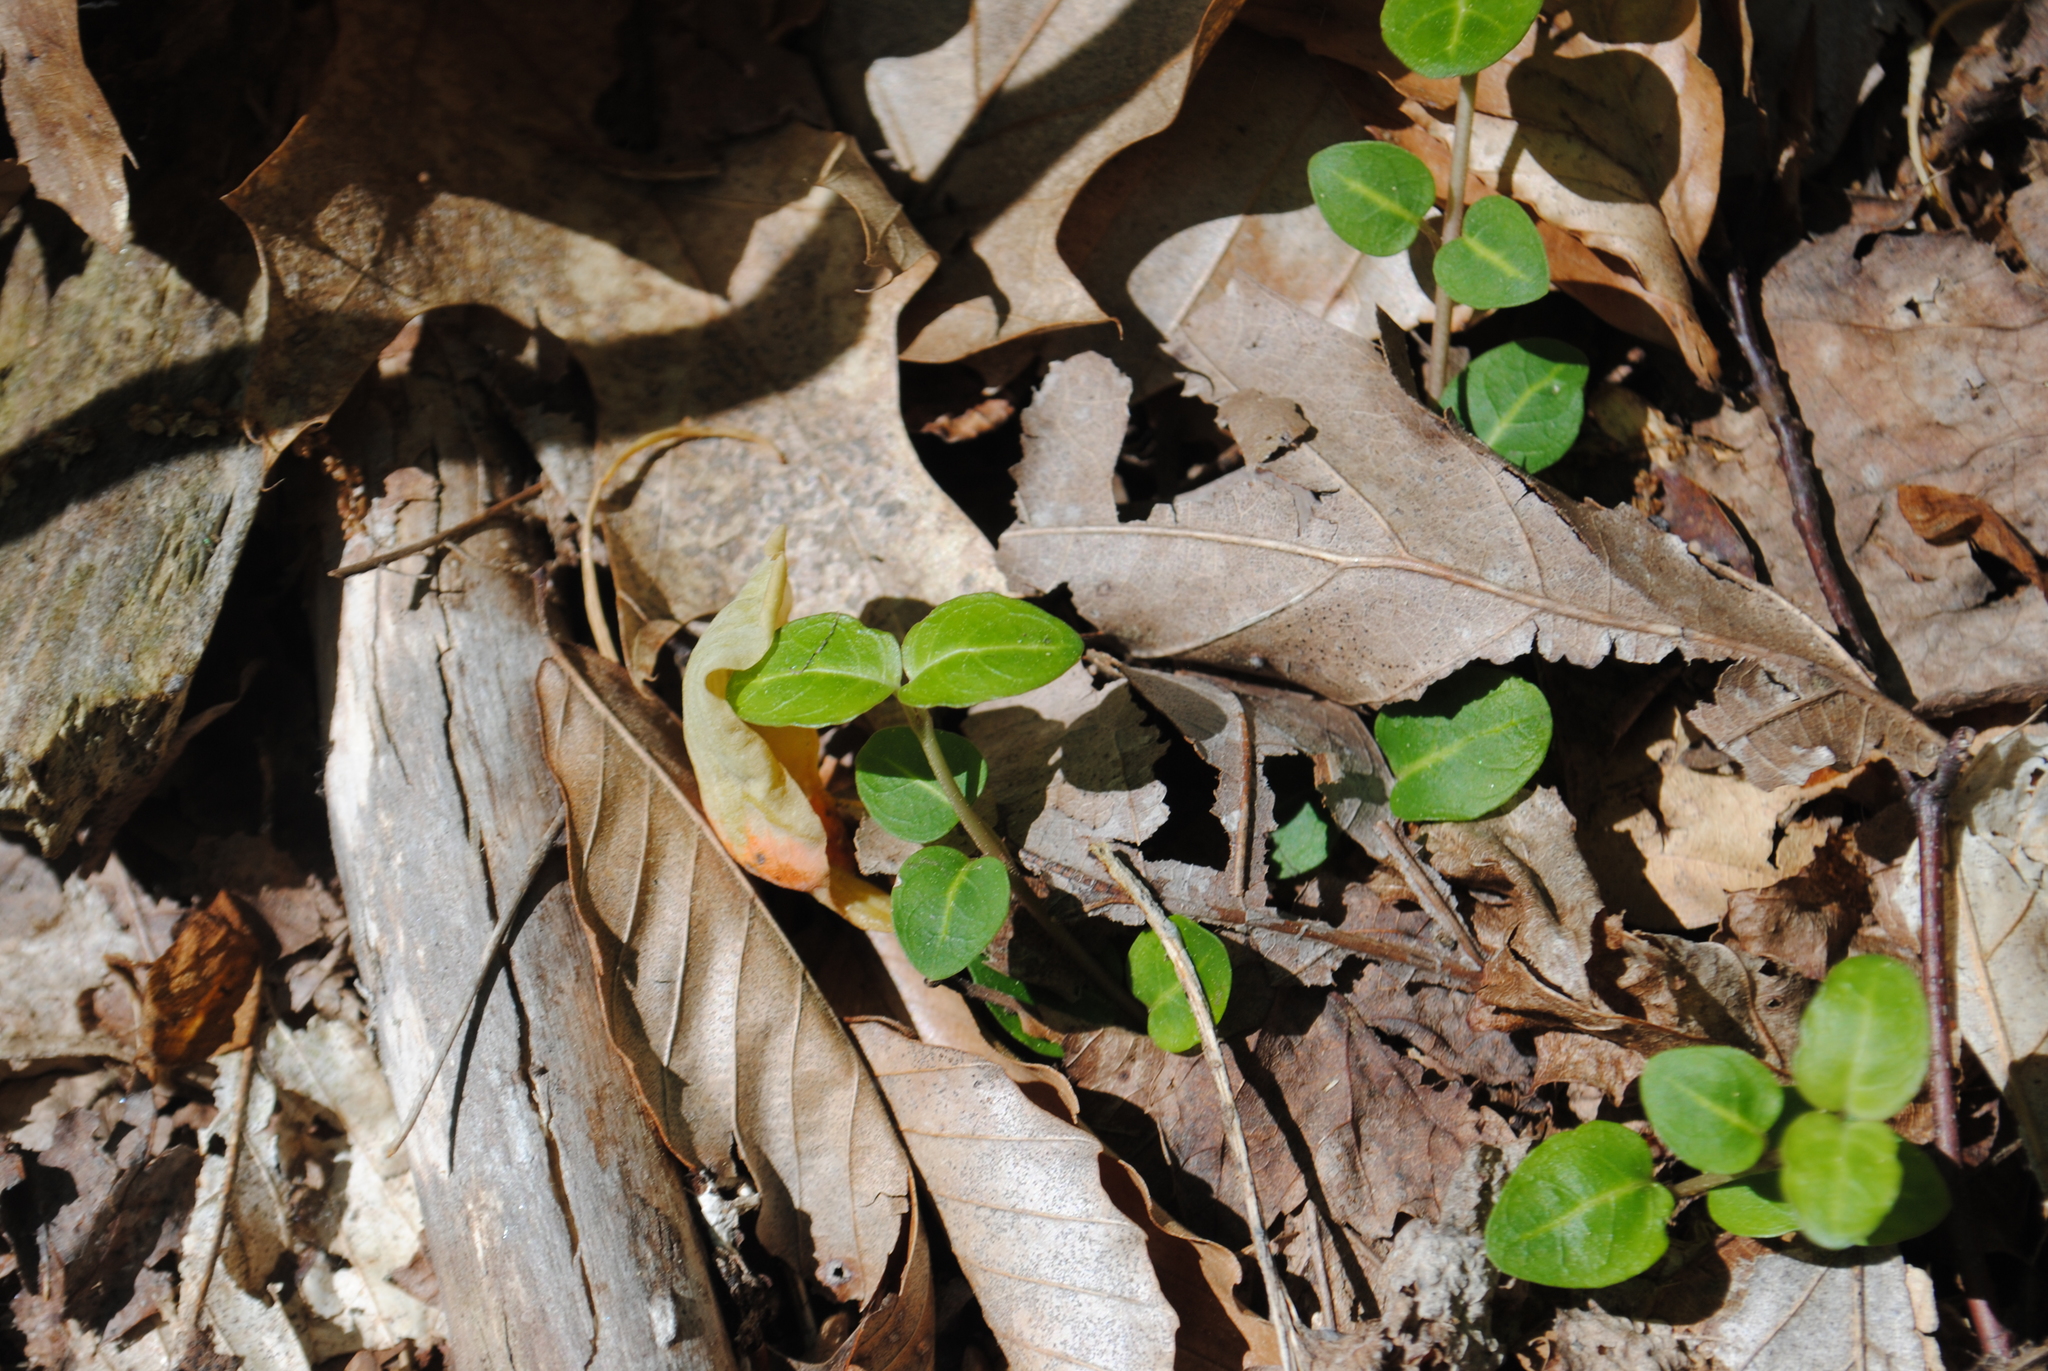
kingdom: Plantae
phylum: Tracheophyta
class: Magnoliopsida
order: Gentianales
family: Rubiaceae
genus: Mitchella
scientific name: Mitchella repens
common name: Partridge-berry
